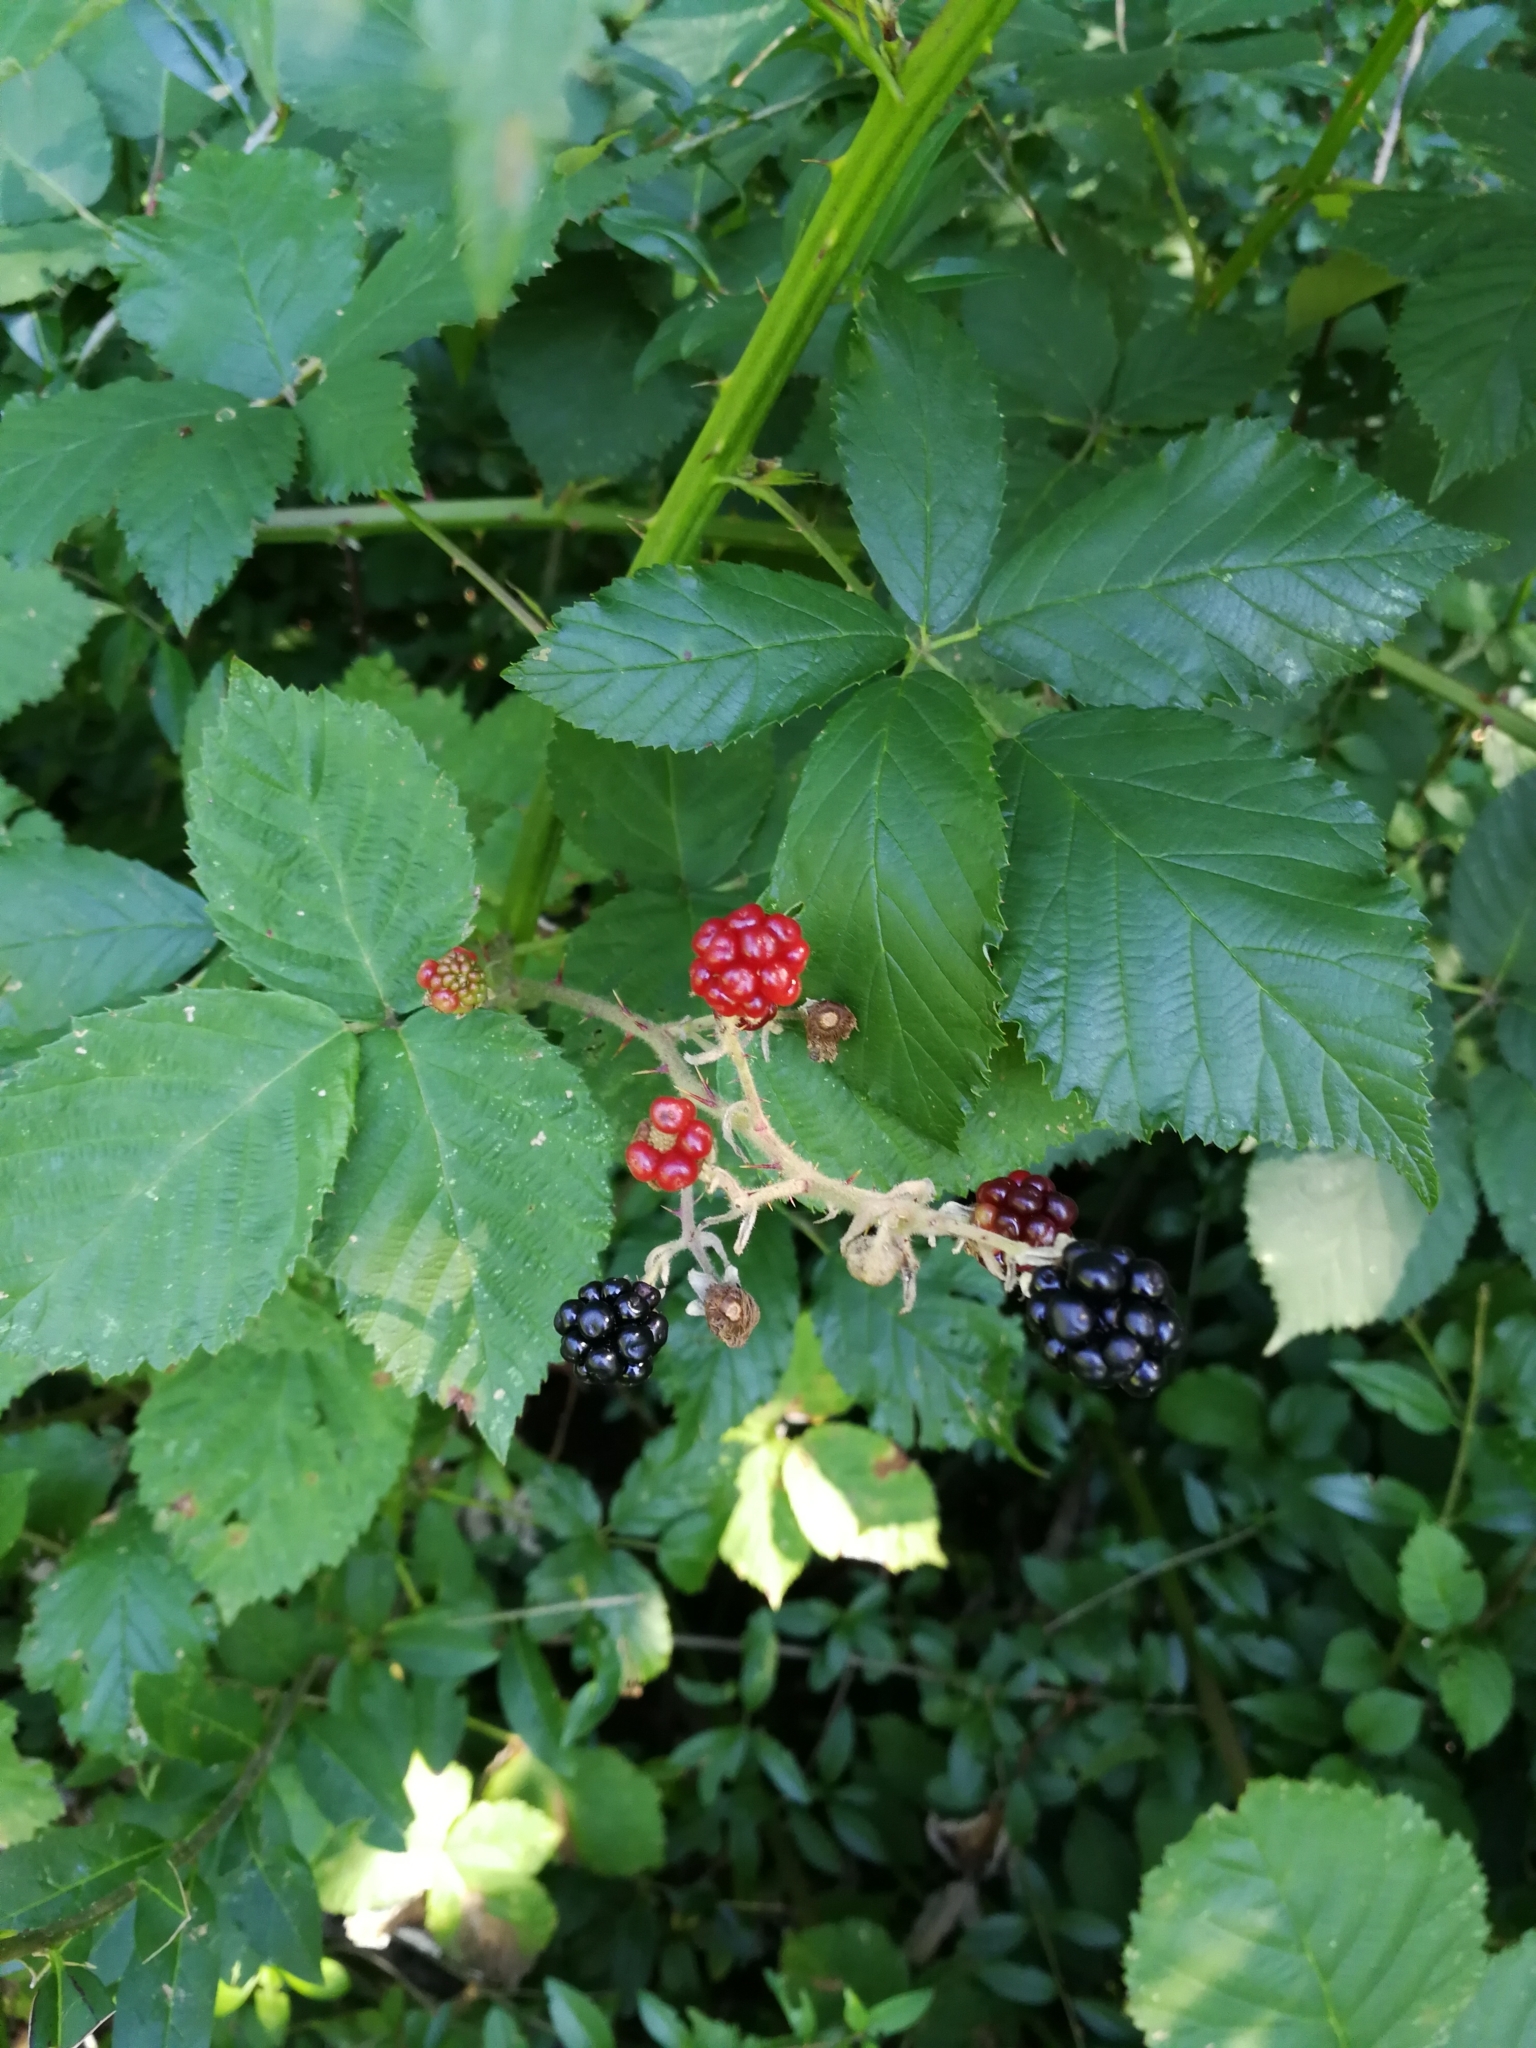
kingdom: Plantae
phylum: Tracheophyta
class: Magnoliopsida
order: Rosales
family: Rosaceae
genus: Rubus
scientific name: Rubus
